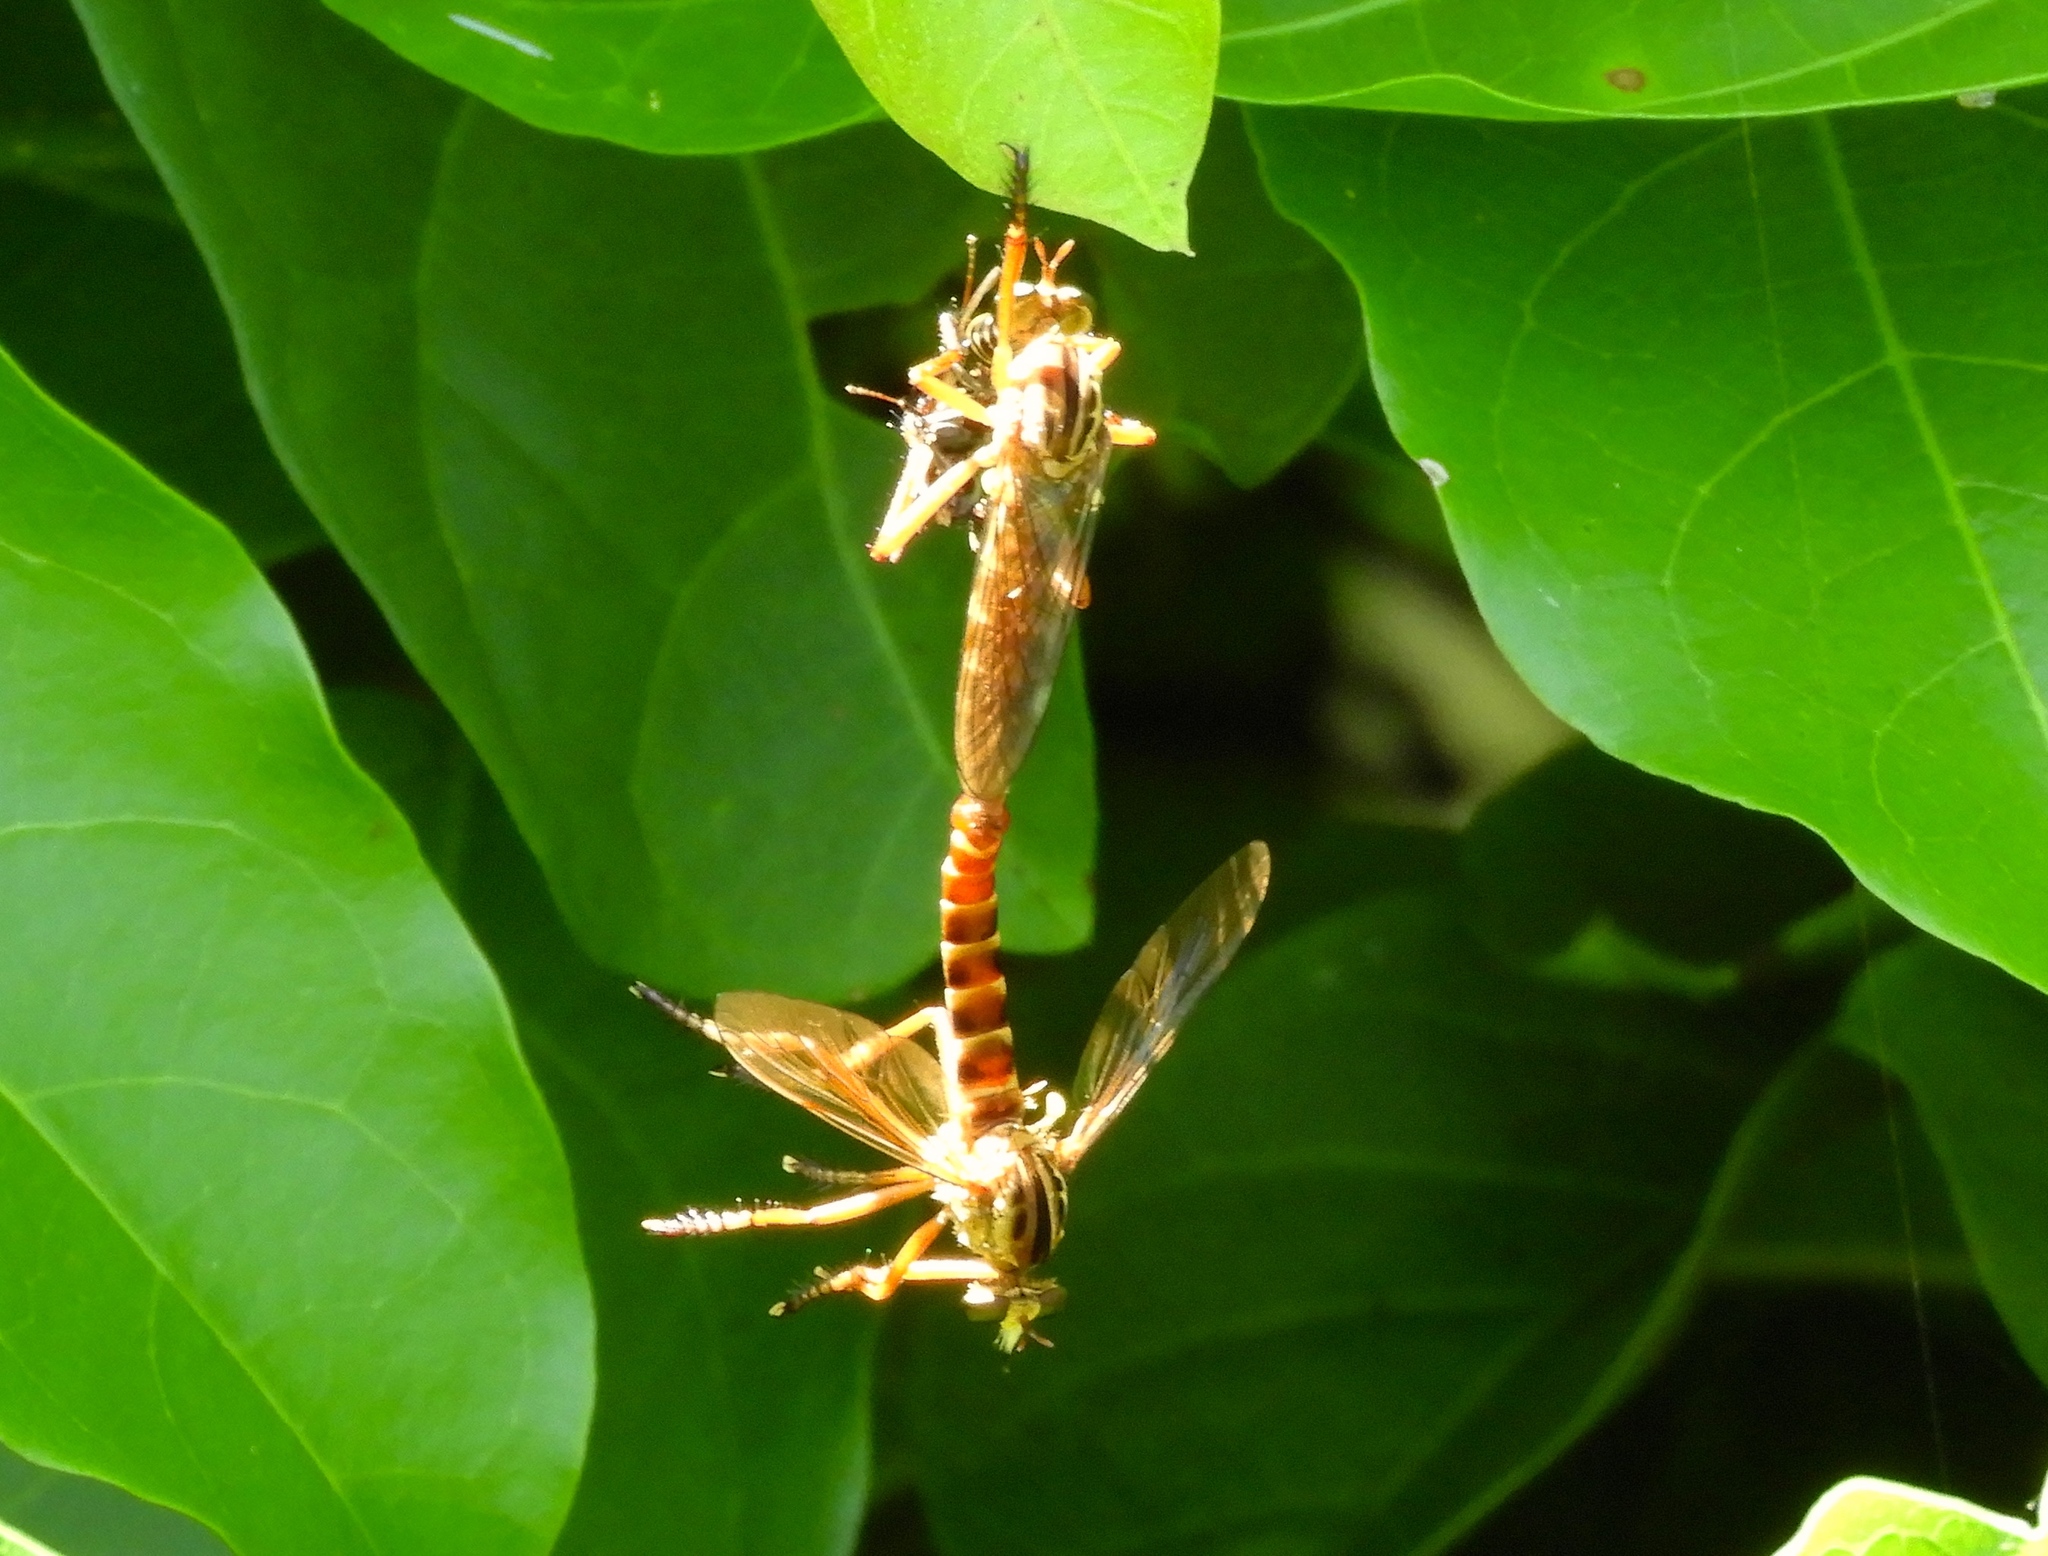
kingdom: Animalia
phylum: Arthropoda
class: Insecta
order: Diptera
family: Asilidae
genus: Diogmites
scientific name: Diogmites
